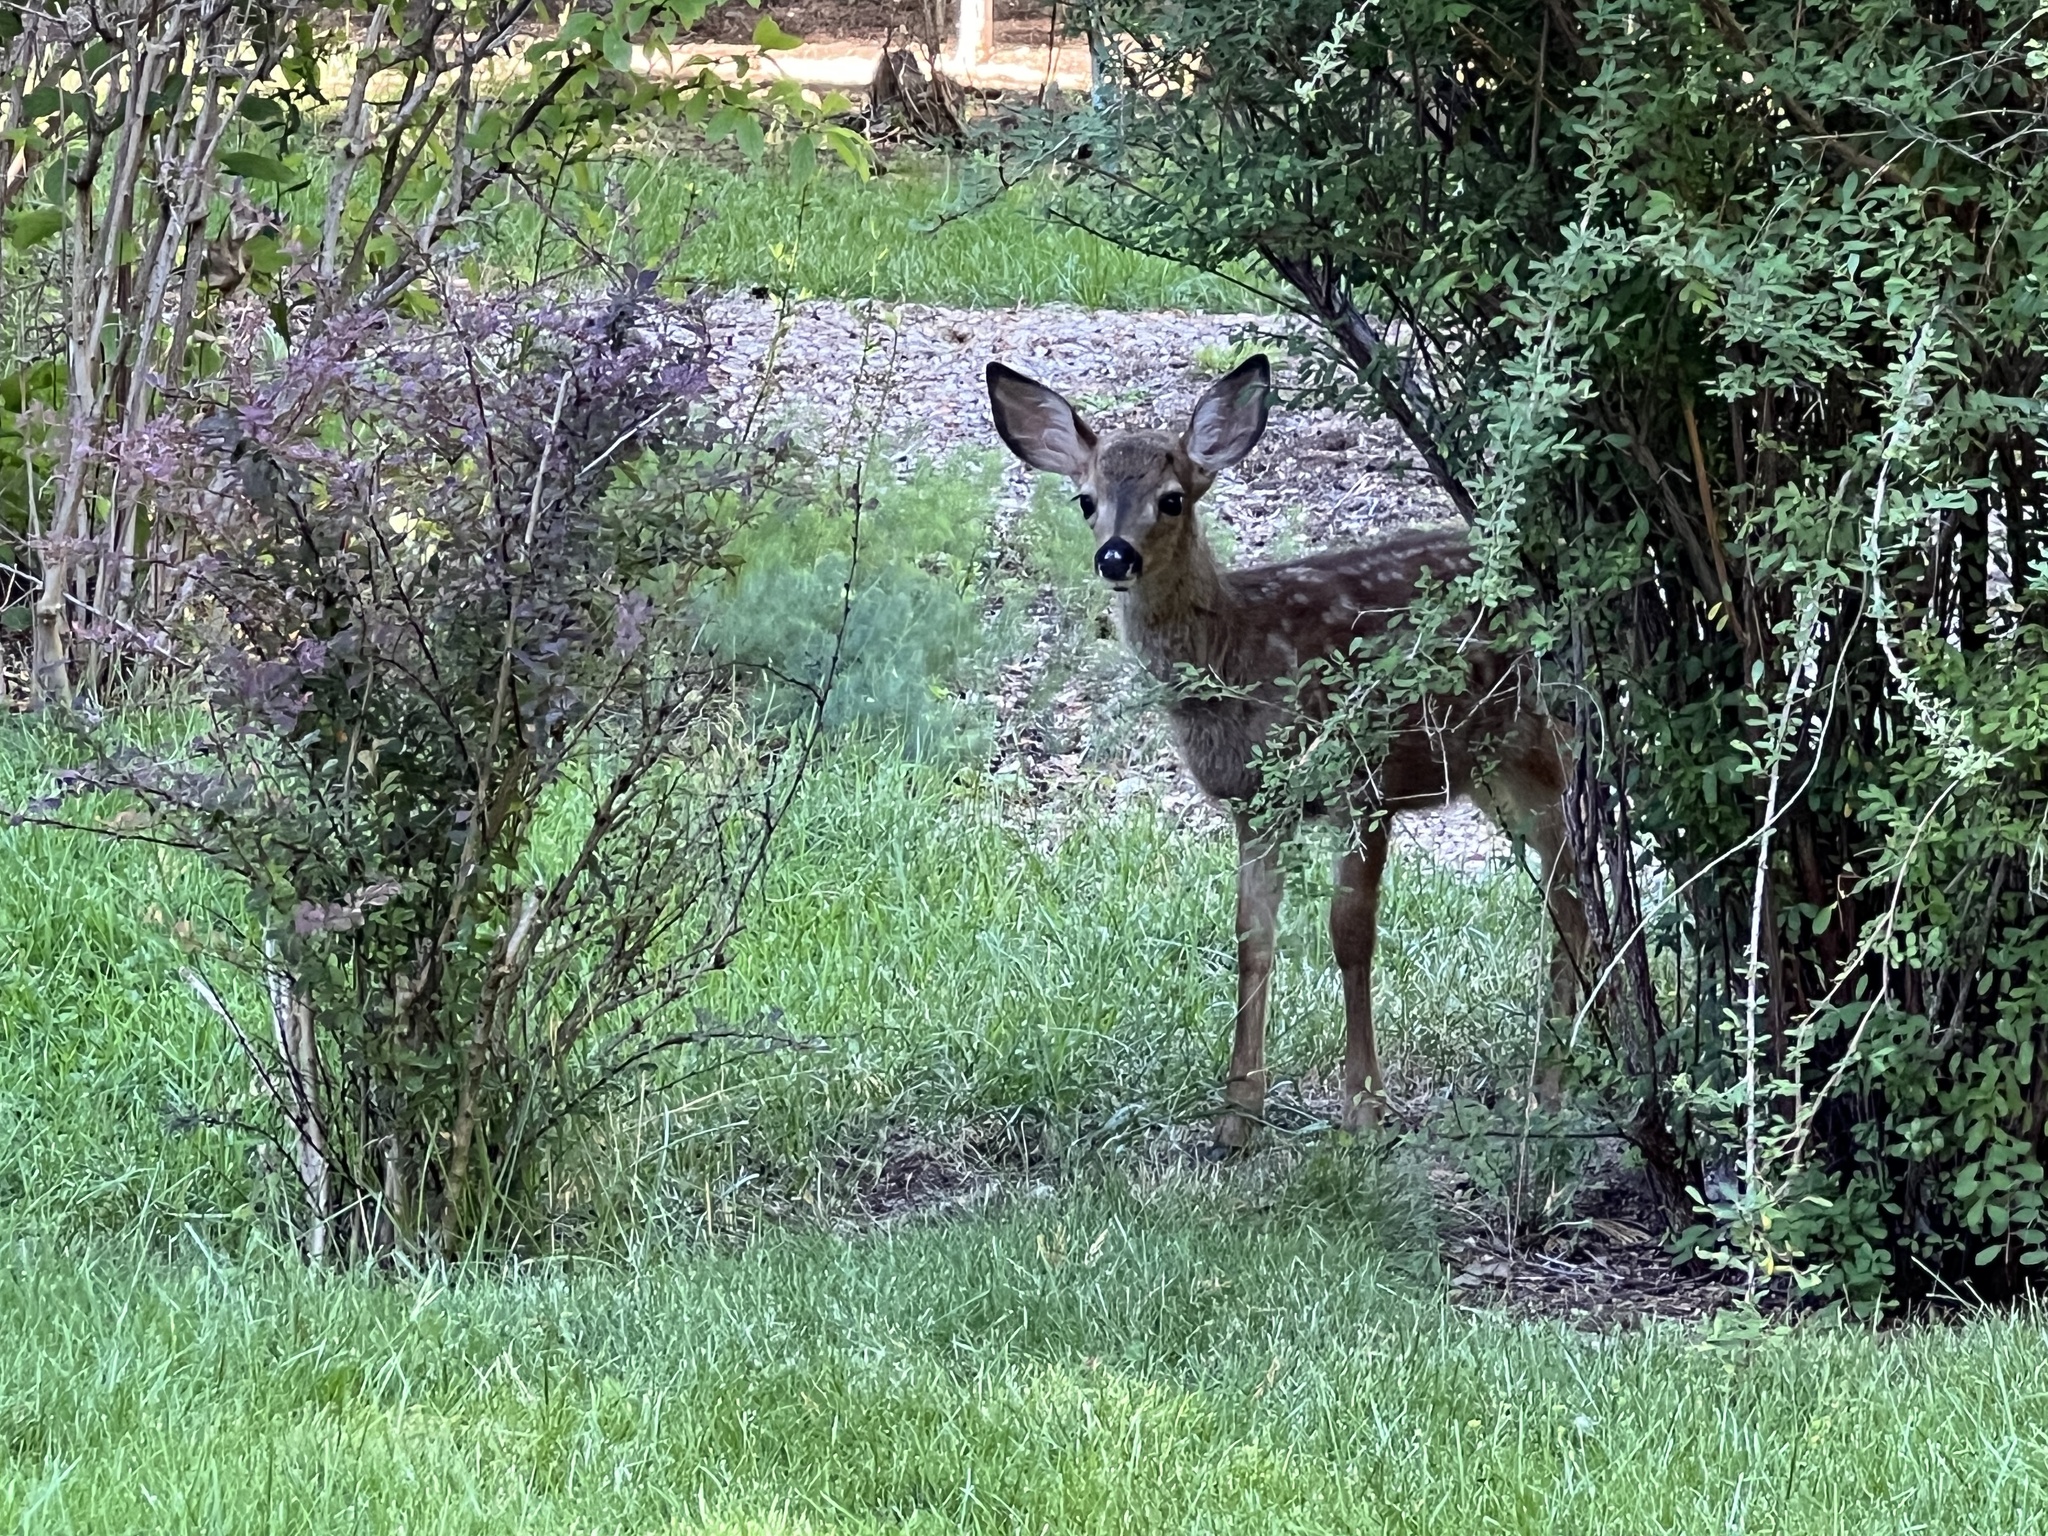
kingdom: Animalia
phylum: Chordata
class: Mammalia
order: Artiodactyla
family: Cervidae
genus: Odocoileus
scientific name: Odocoileus hemionus
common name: Mule deer
